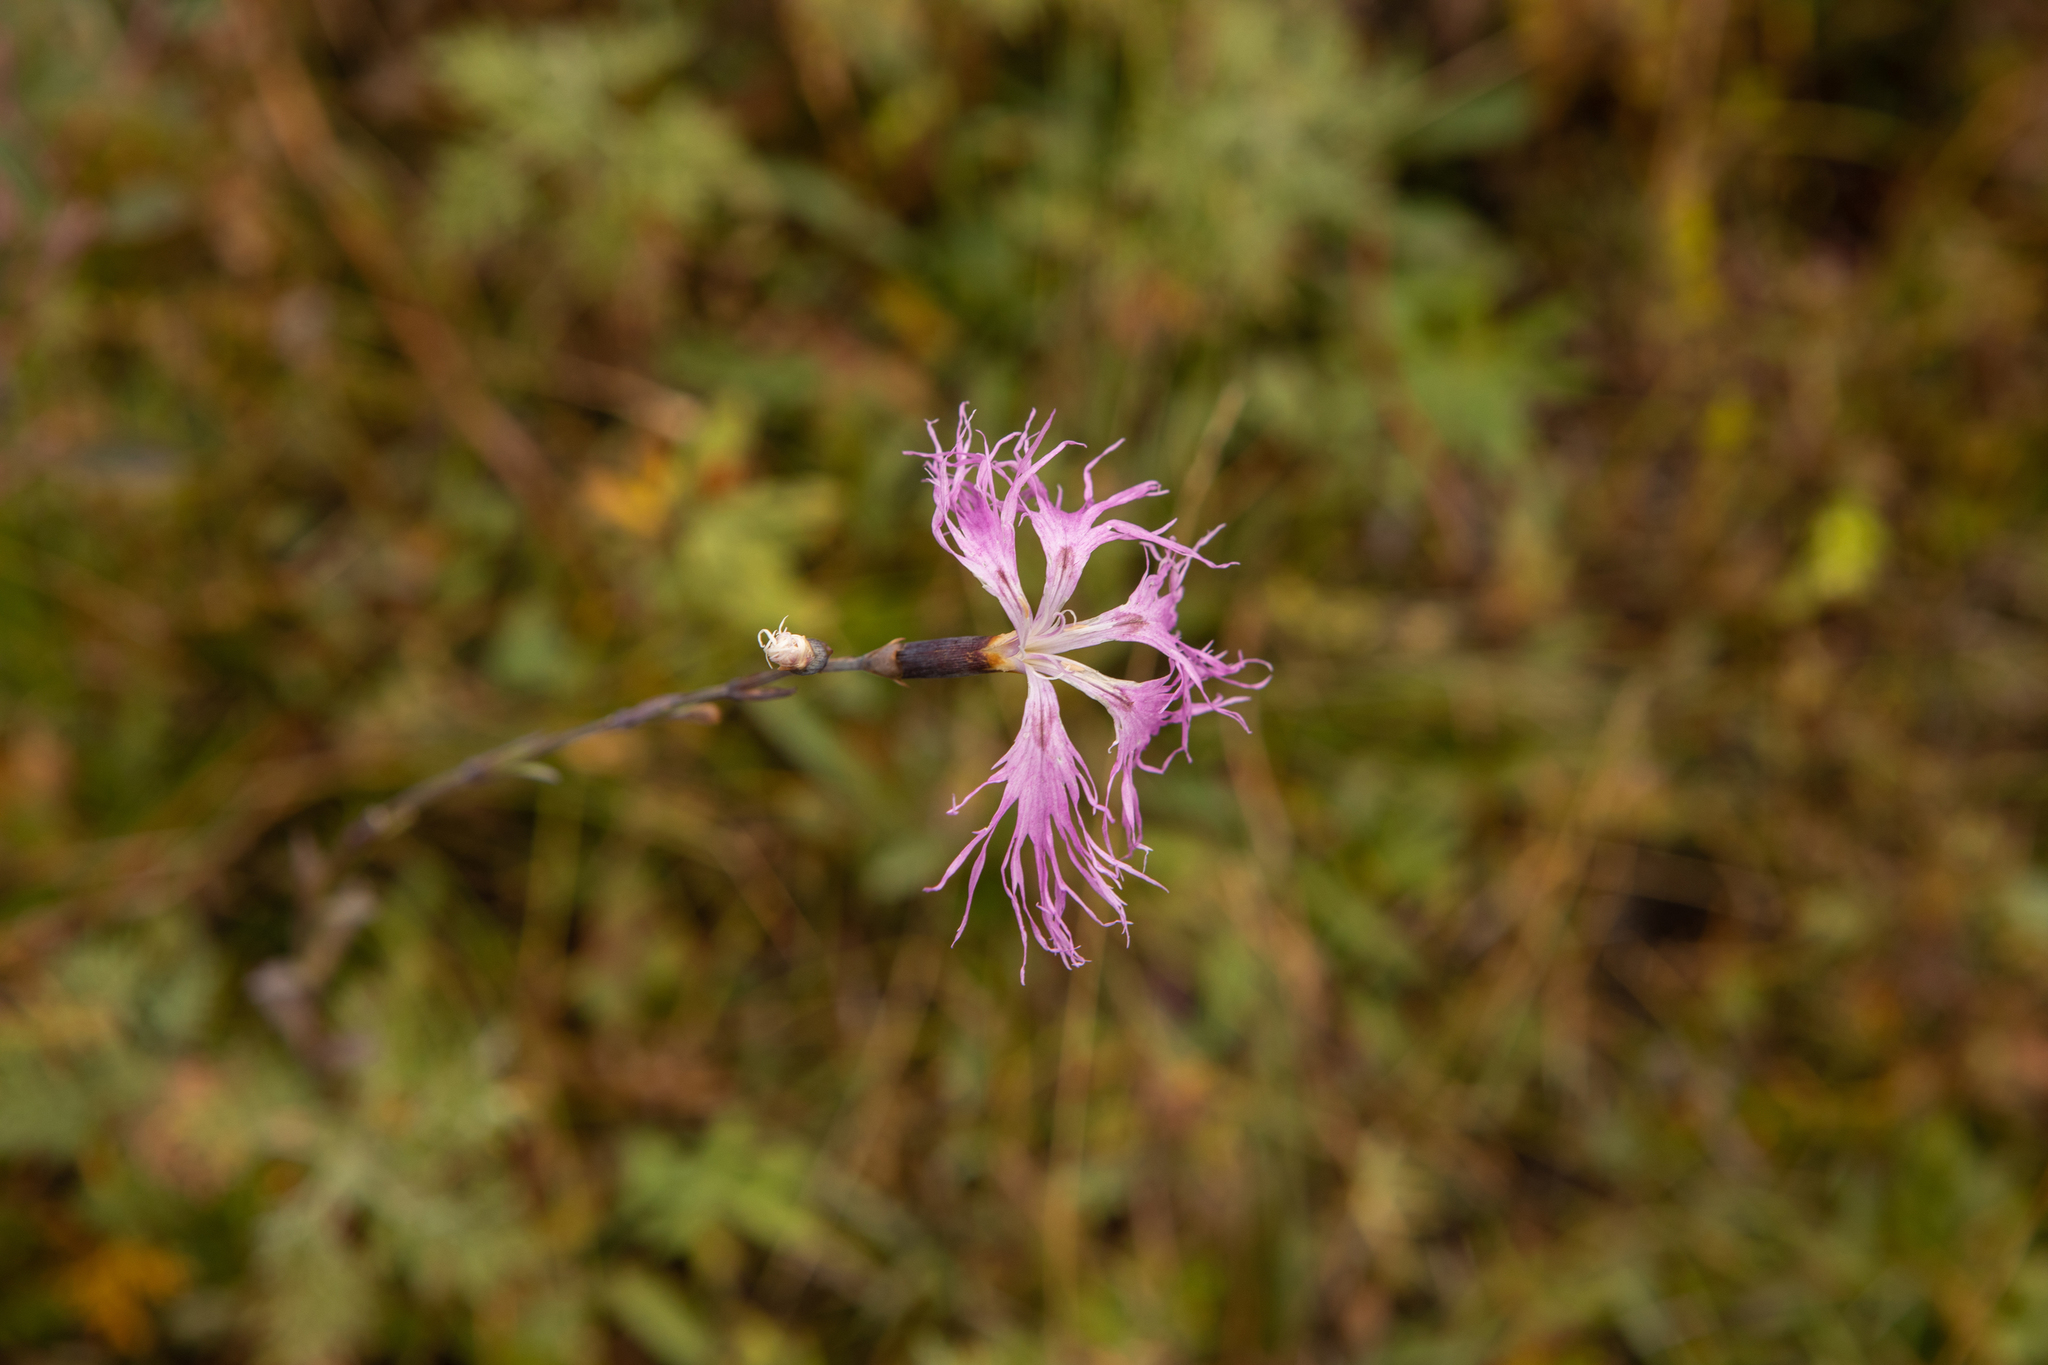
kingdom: Plantae
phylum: Tracheophyta
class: Magnoliopsida
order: Caryophyllales
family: Caryophyllaceae
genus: Dianthus
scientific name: Dianthus superbus
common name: Fringed pink
